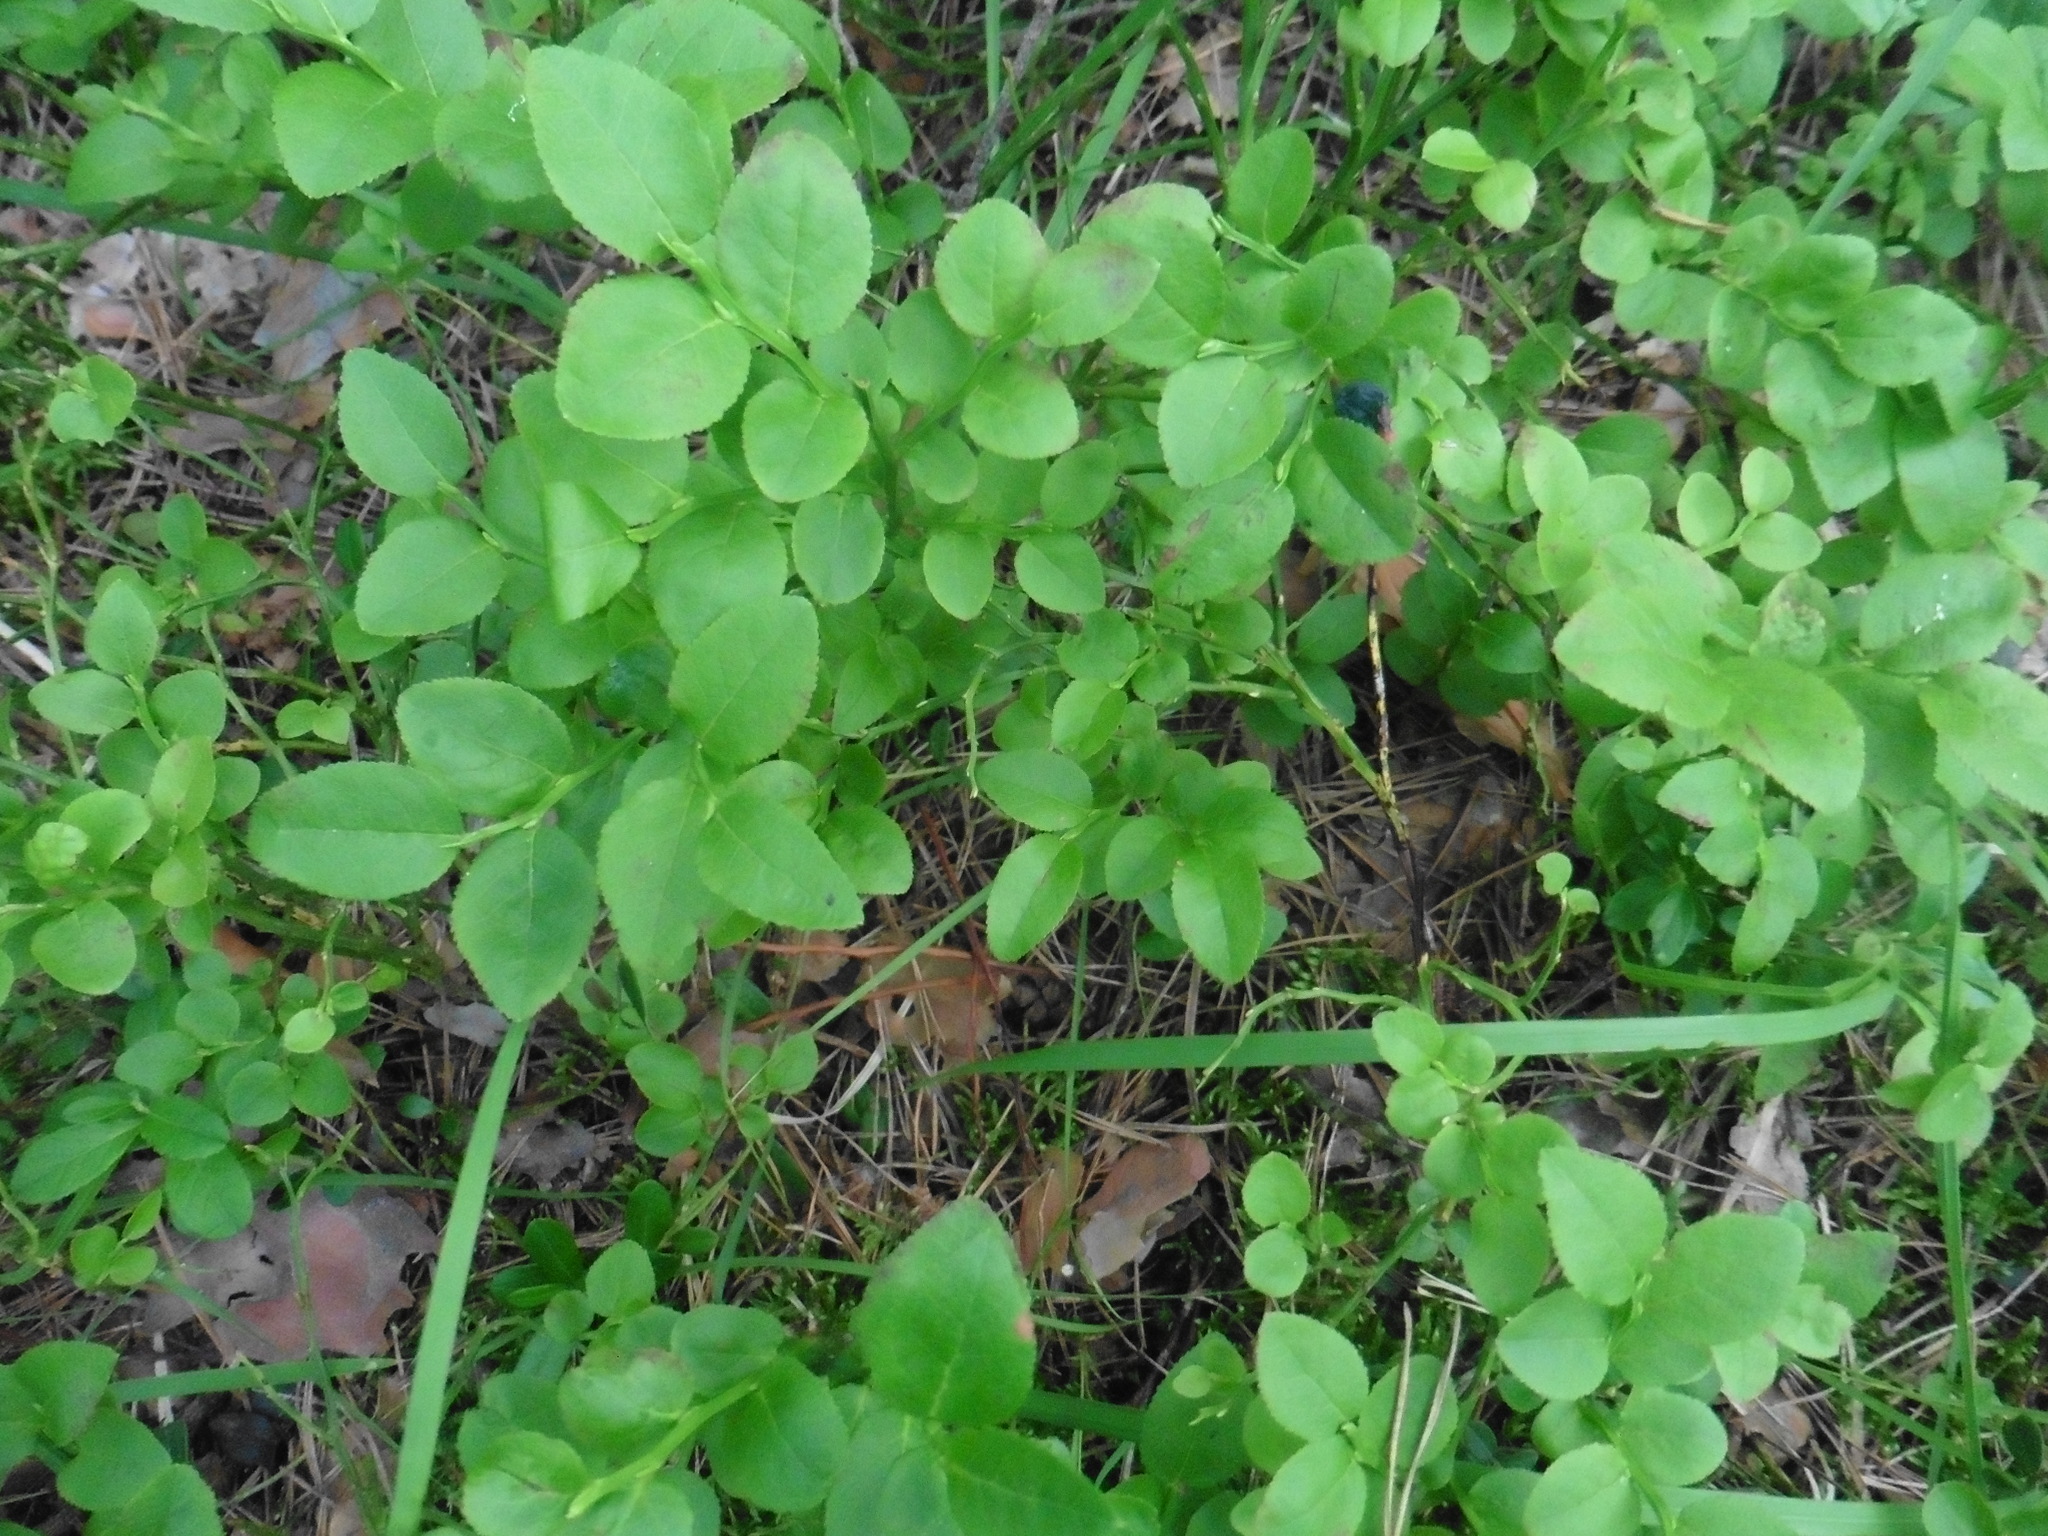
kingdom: Plantae
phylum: Tracheophyta
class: Magnoliopsida
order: Ericales
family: Ericaceae
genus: Vaccinium
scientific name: Vaccinium myrtillus
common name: Bilberry
